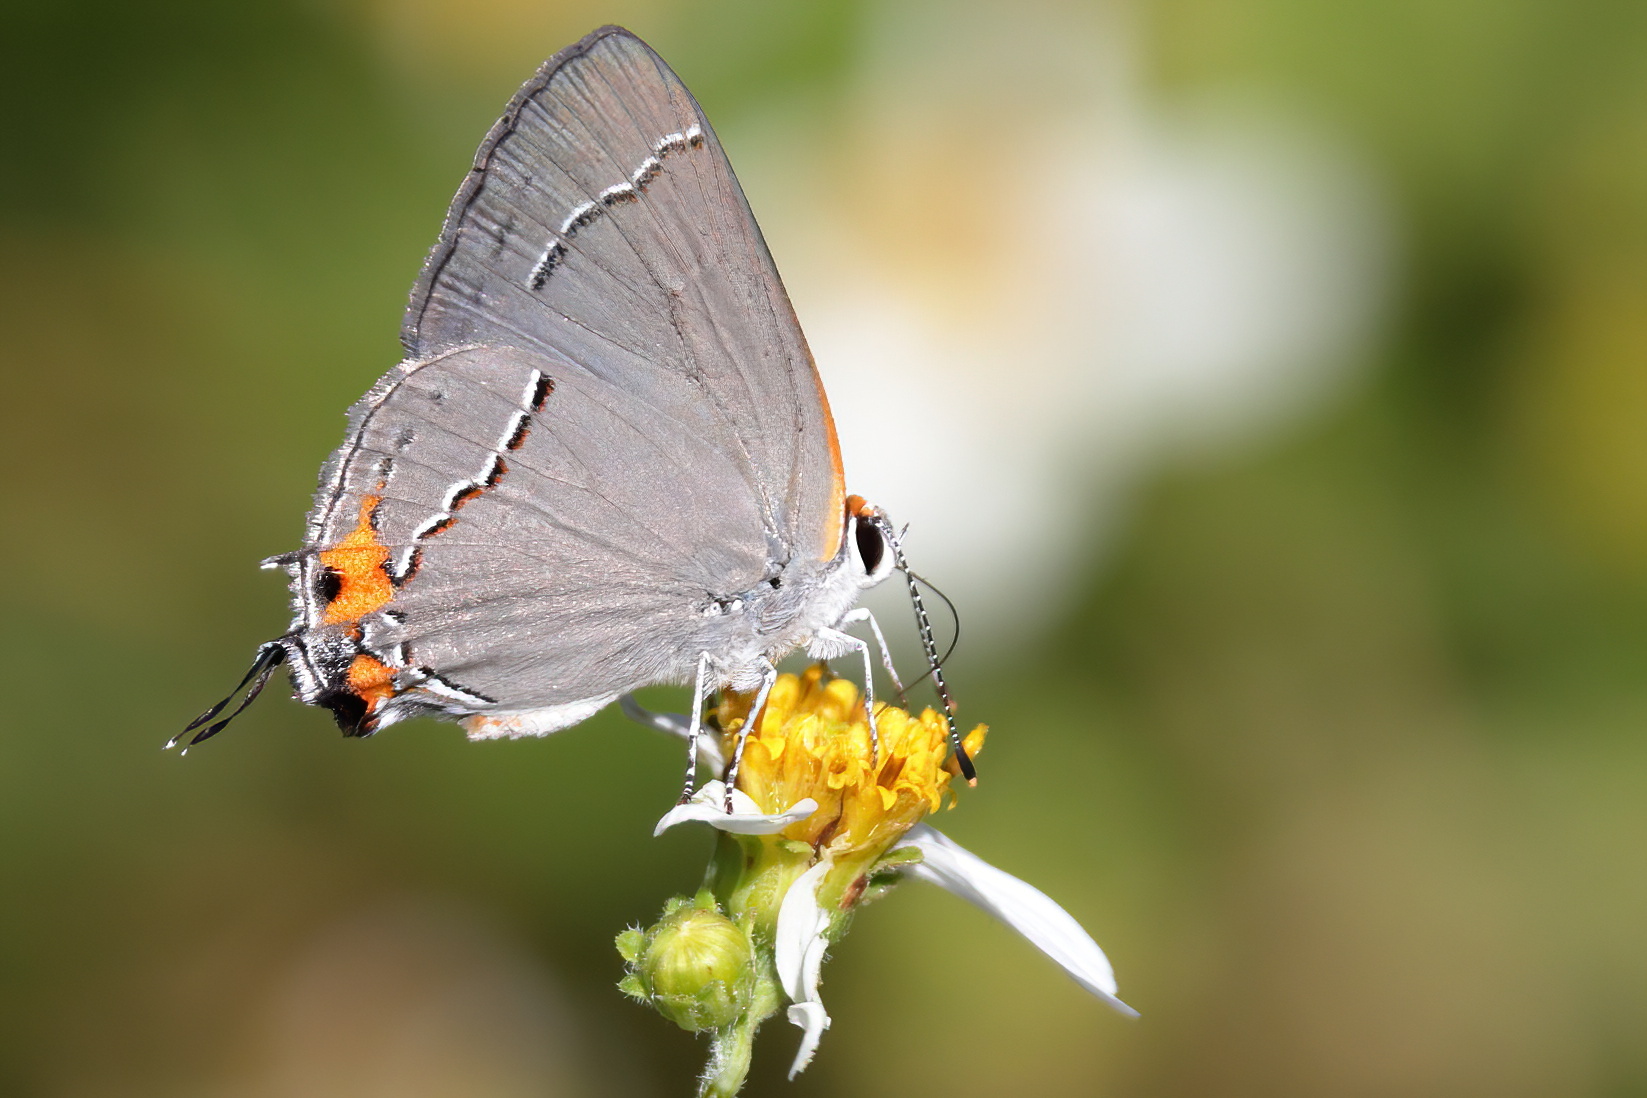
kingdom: Animalia
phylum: Arthropoda
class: Insecta
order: Lepidoptera
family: Lycaenidae
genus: Strymon
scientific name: Strymon melinus
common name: Gray hairstreak
